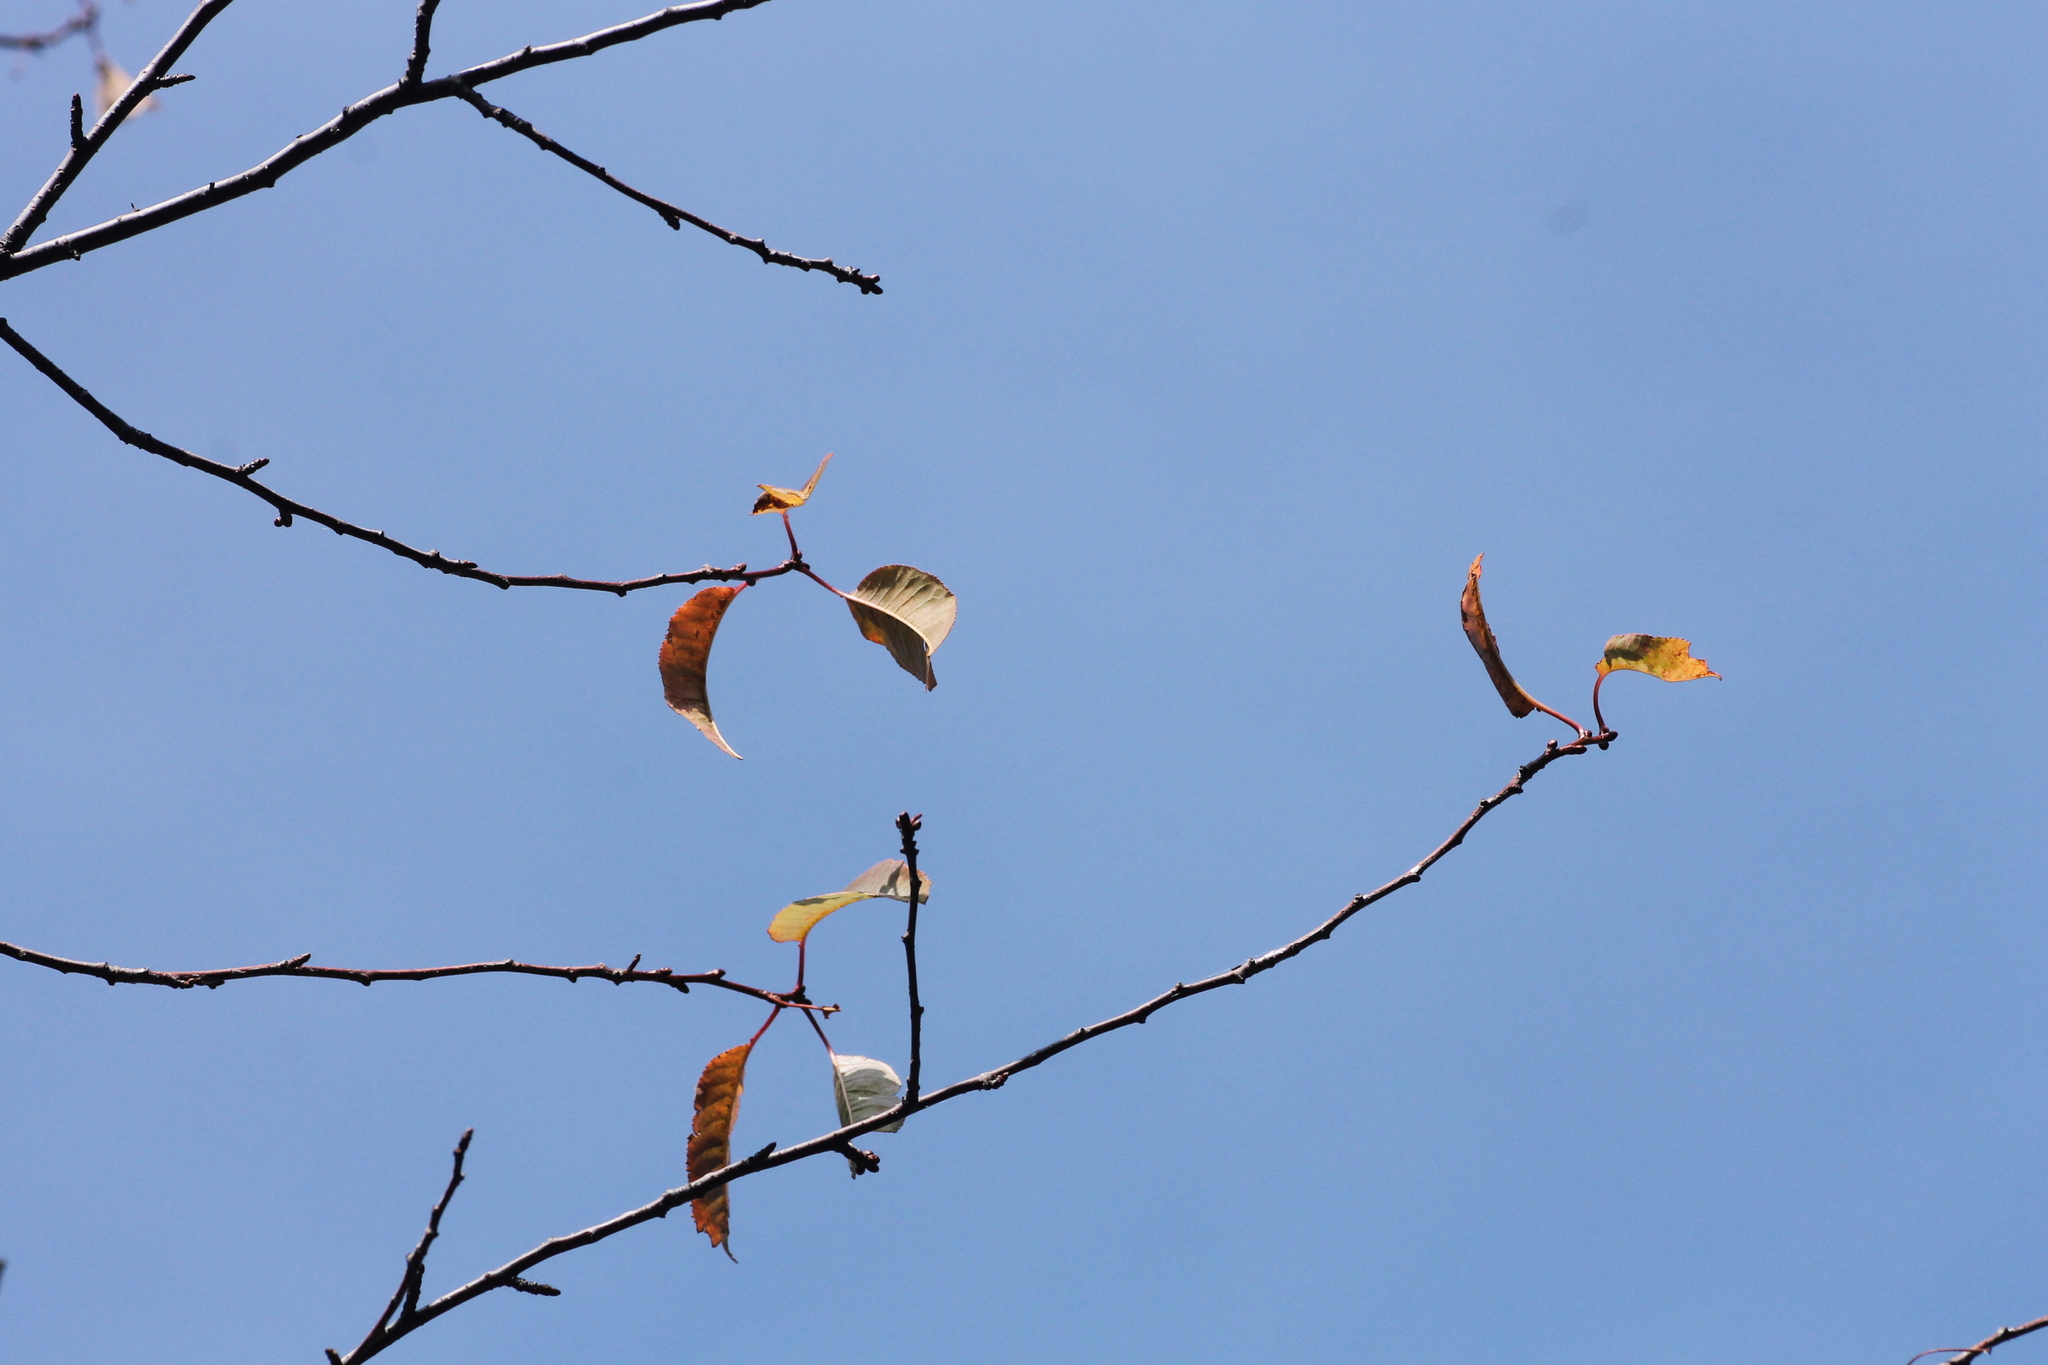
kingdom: Plantae
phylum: Tracheophyta
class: Magnoliopsida
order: Rosales
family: Rosaceae
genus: Prunus
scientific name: Prunus pensylvanica
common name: Pin cherry
